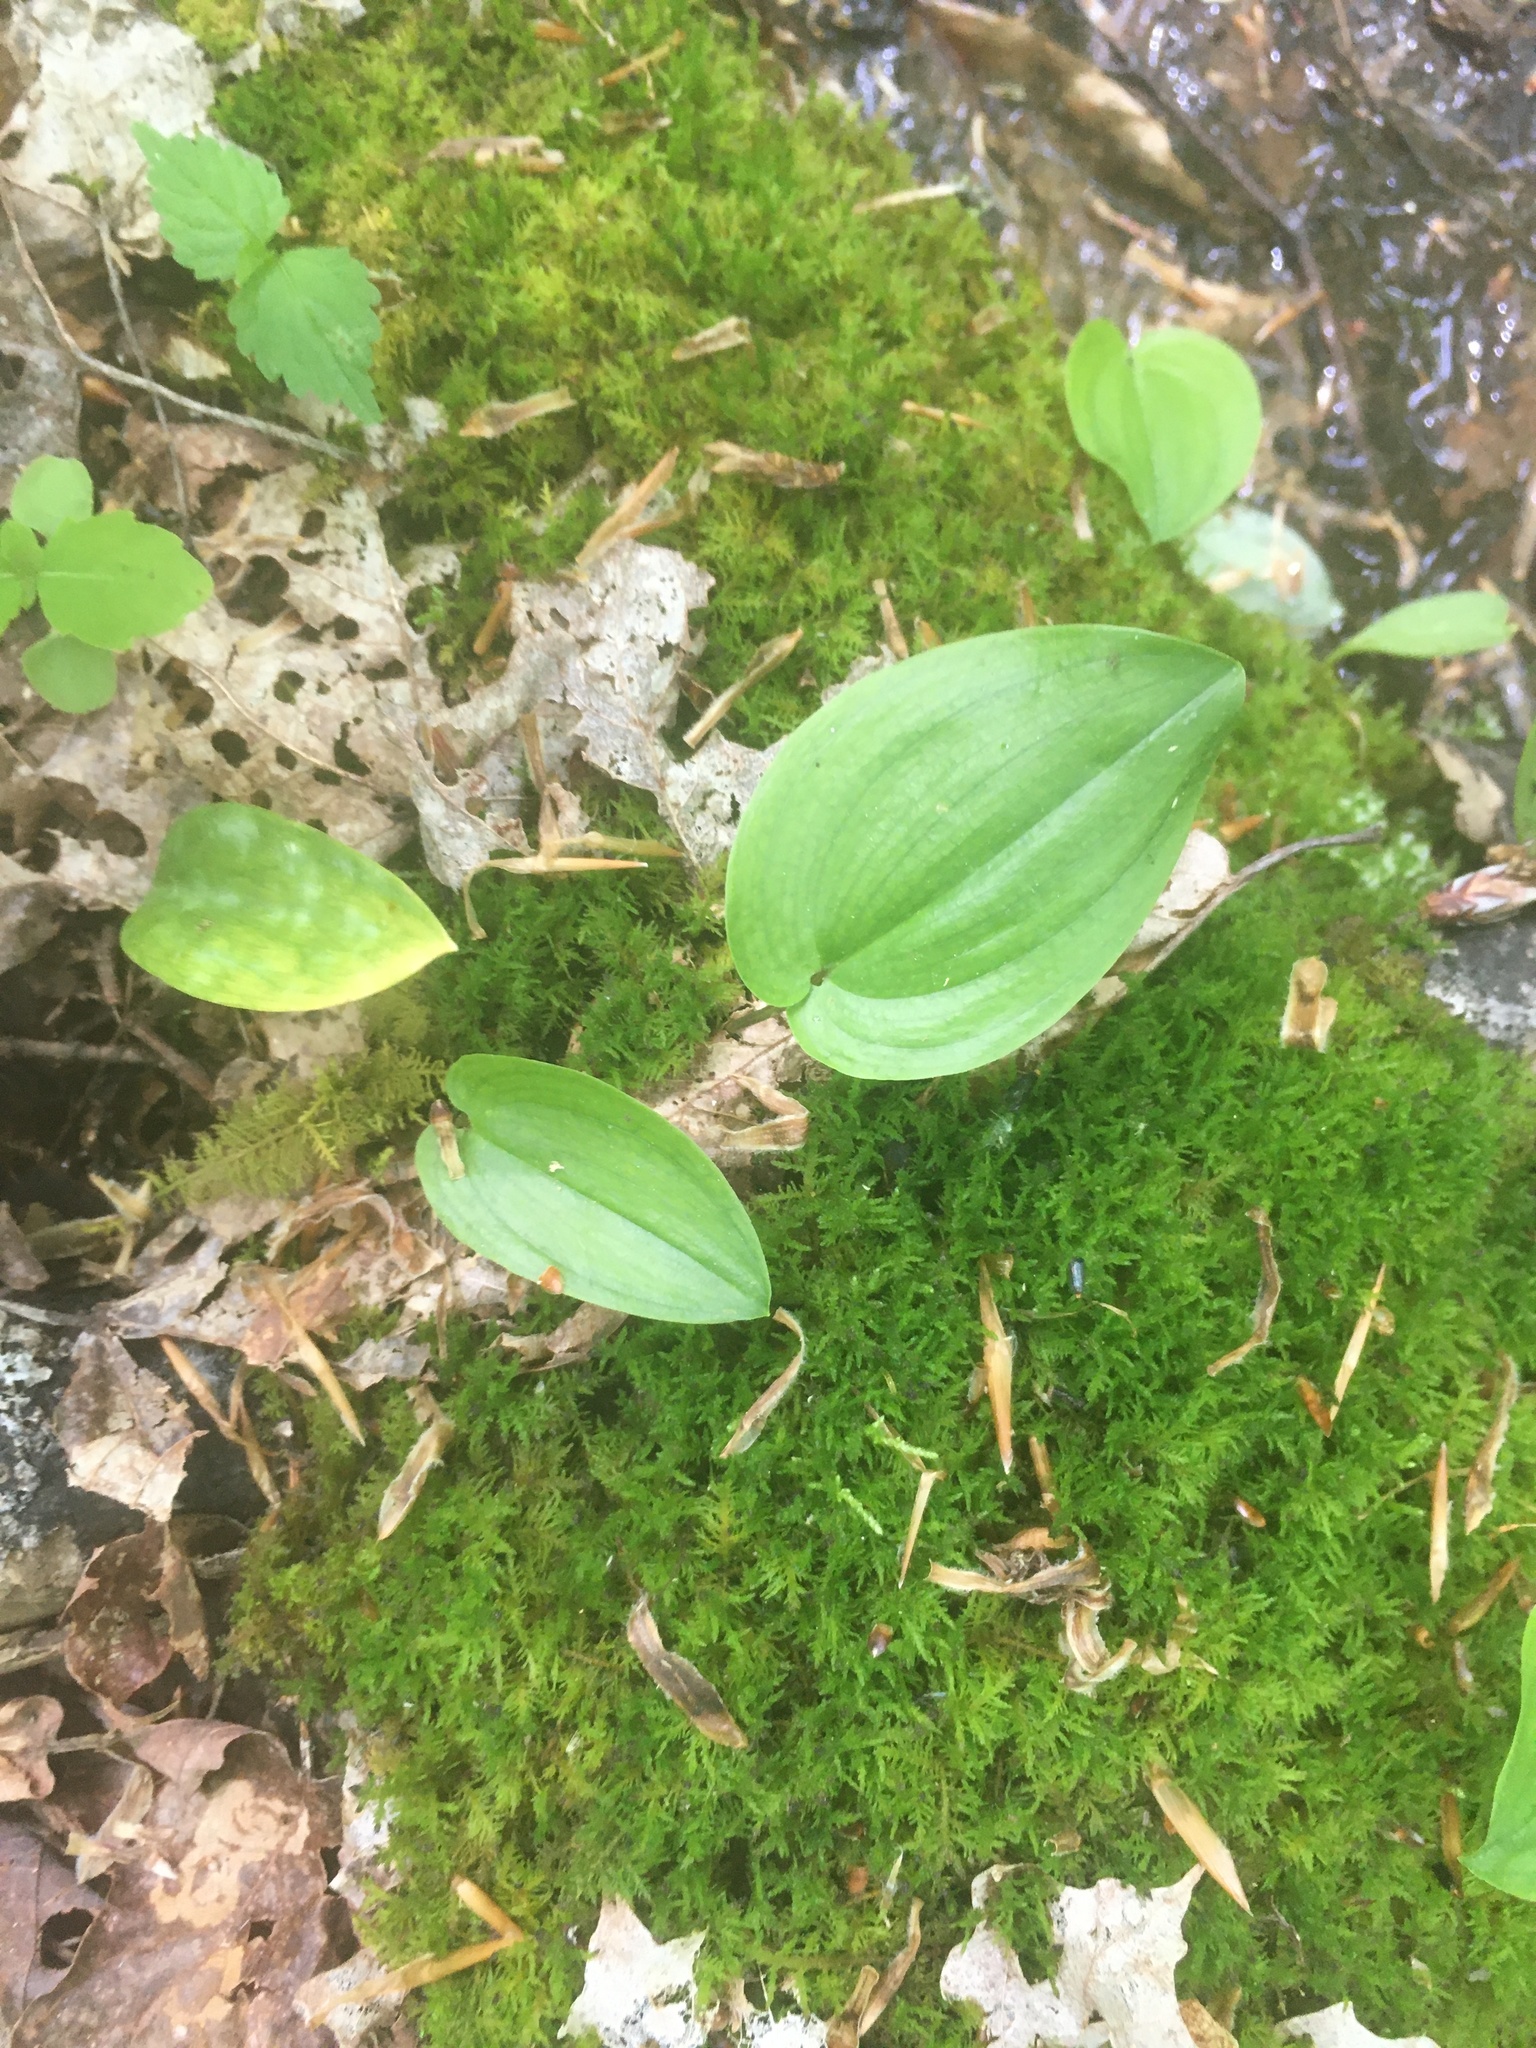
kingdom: Plantae
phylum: Tracheophyta
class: Liliopsida
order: Asparagales
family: Asparagaceae
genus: Maianthemum
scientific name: Maianthemum canadense
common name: False lily-of-the-valley
